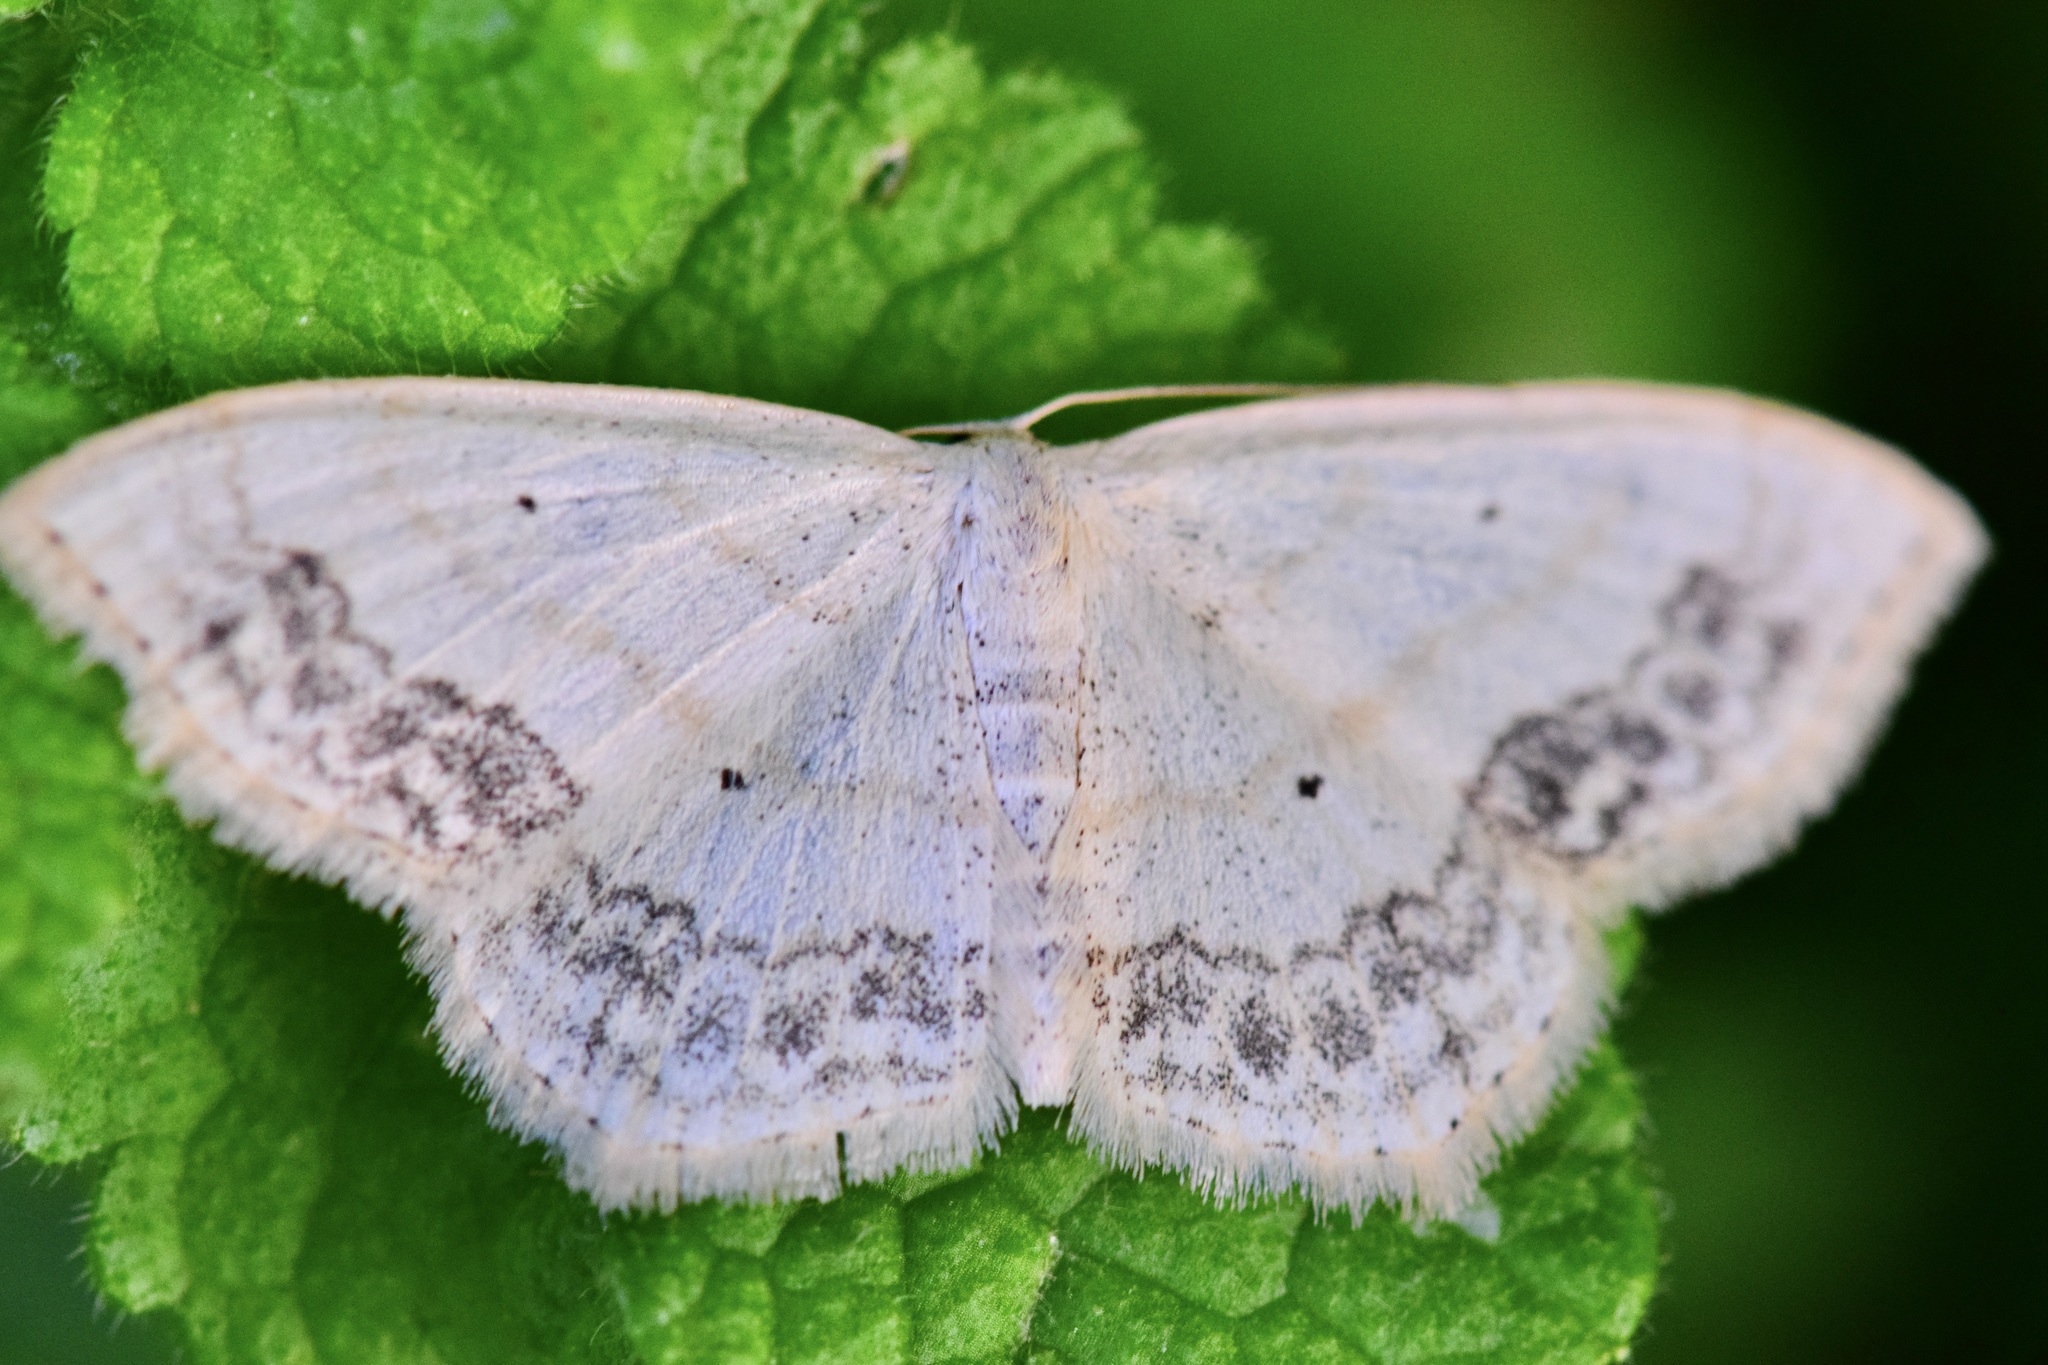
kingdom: Animalia
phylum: Arthropoda
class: Insecta
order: Lepidoptera
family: Geometridae
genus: Scopula
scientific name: Scopula limboundata
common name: Large lace border
